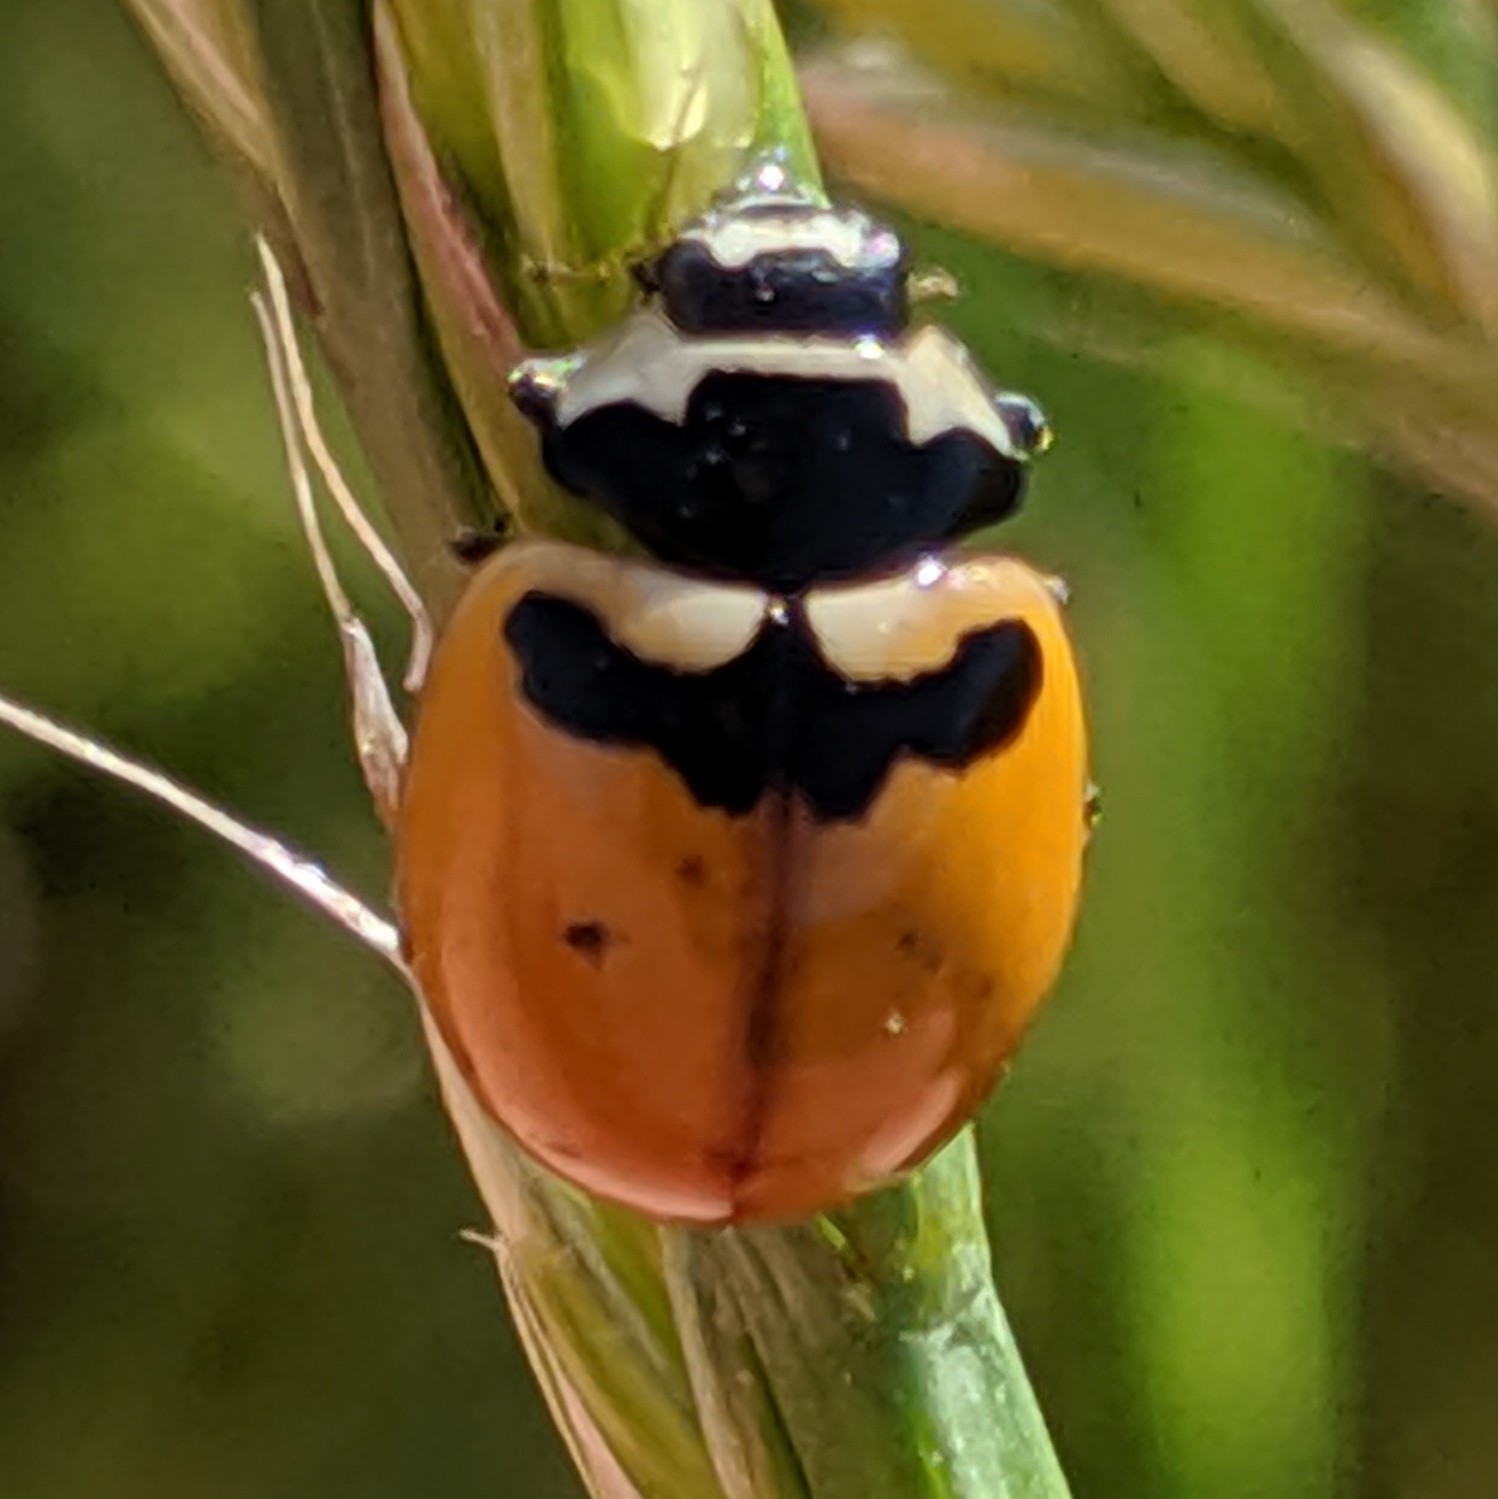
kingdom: Animalia
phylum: Arthropoda
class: Insecta
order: Coleoptera
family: Coccinellidae
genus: Coccinella
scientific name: Coccinella trifasciata
